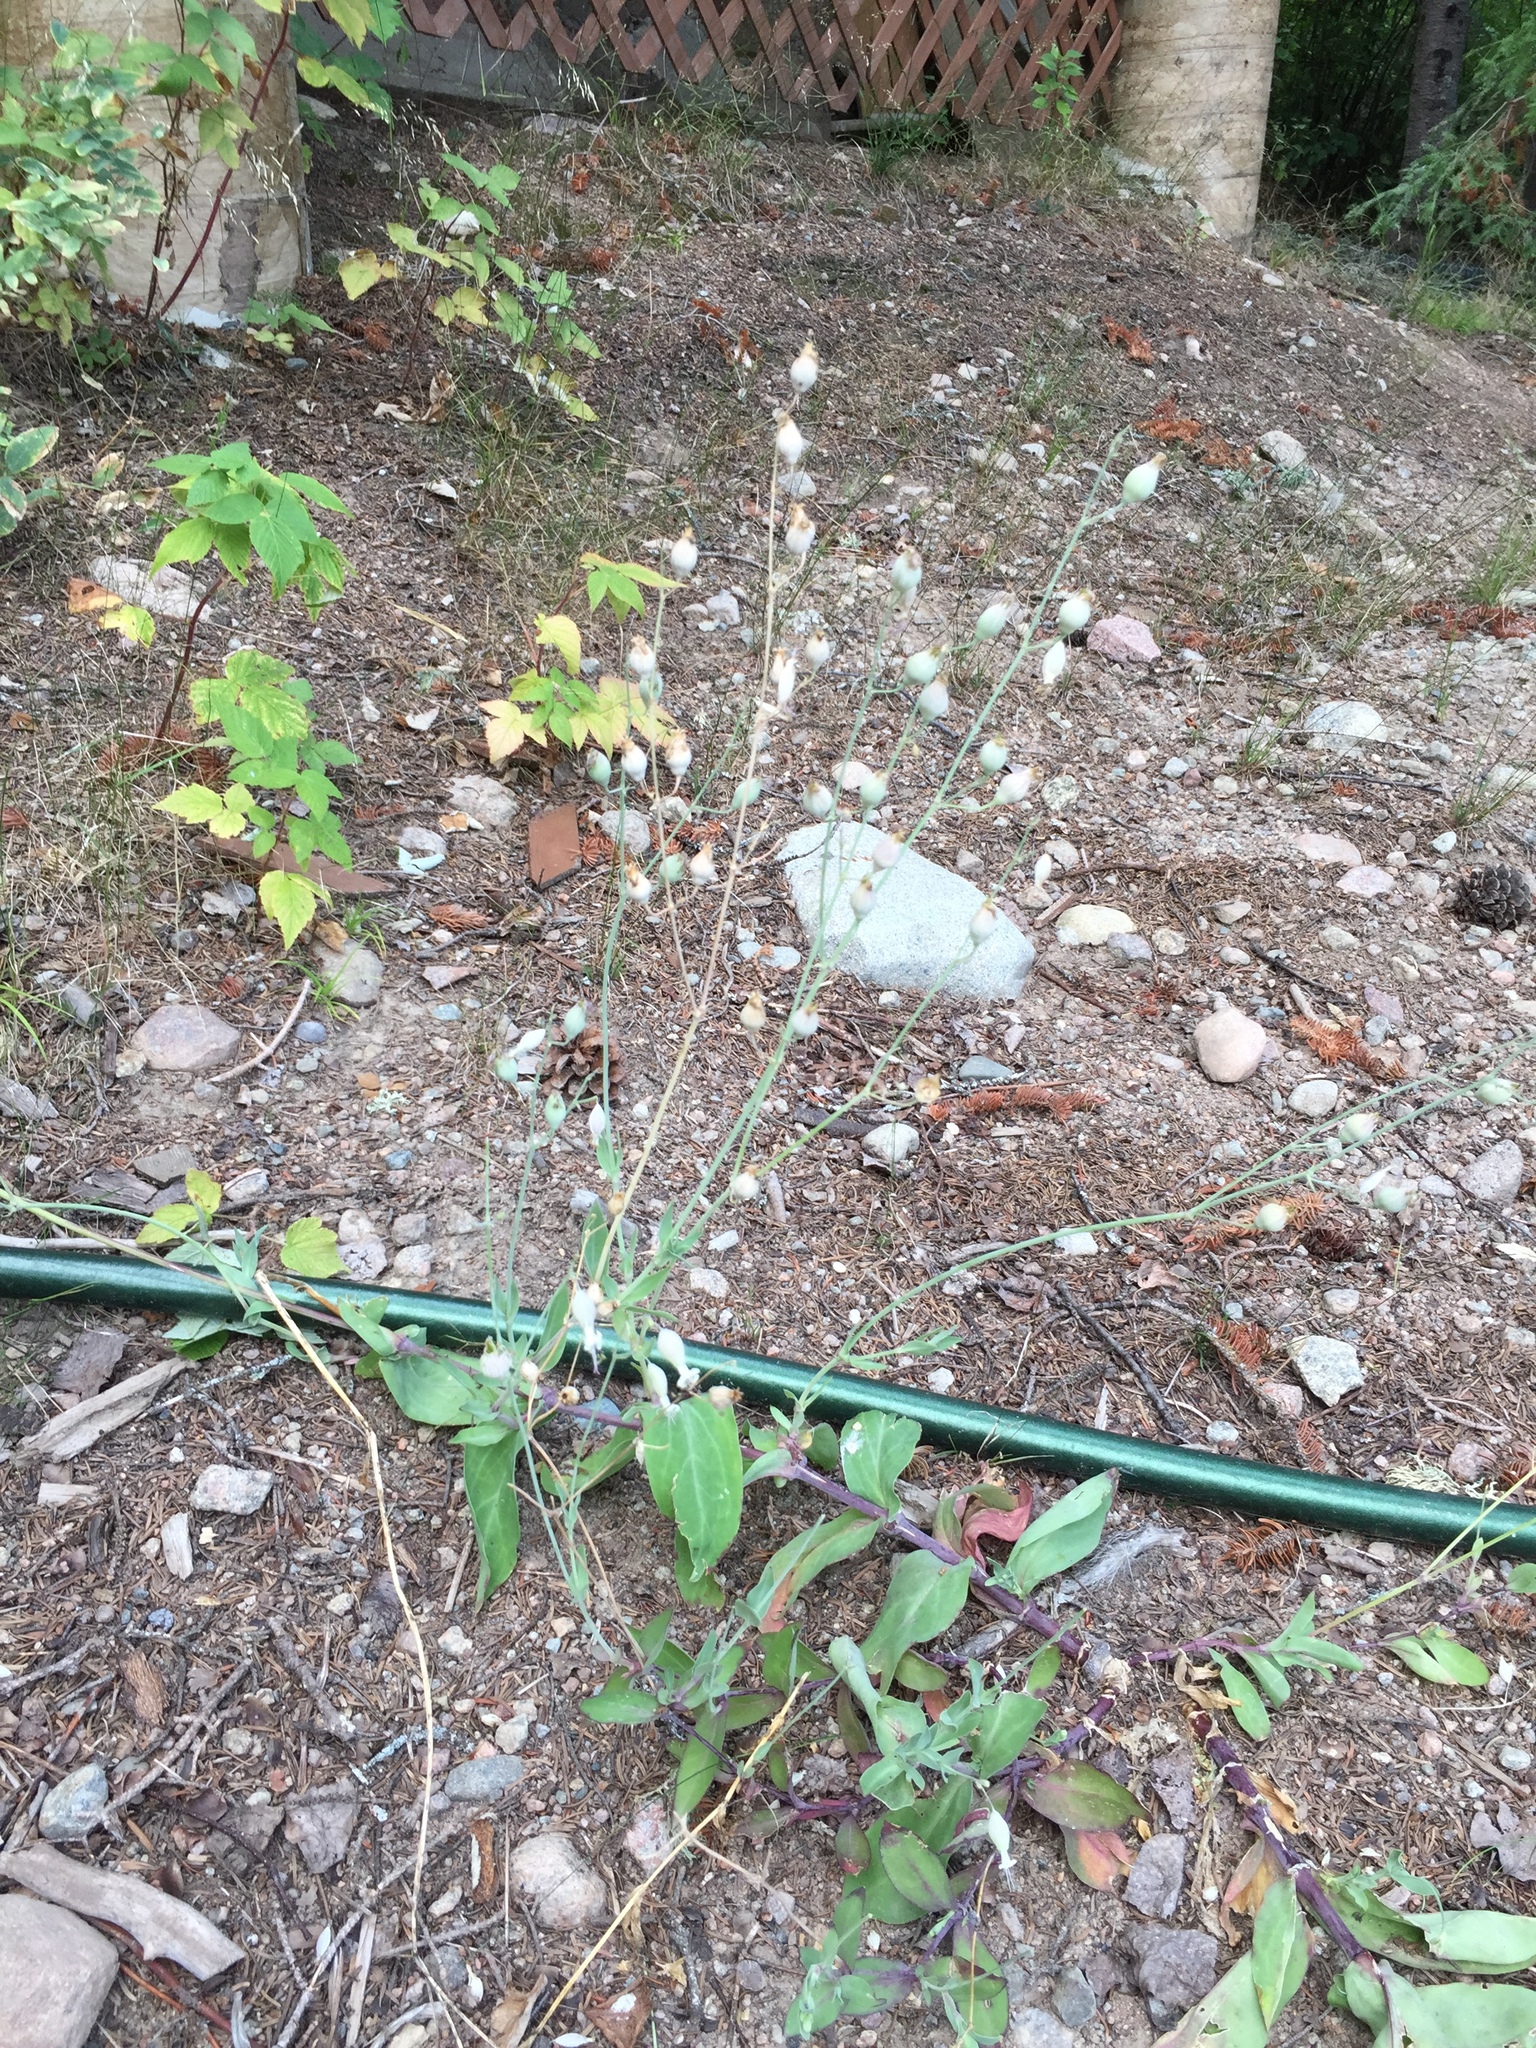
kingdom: Plantae
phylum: Tracheophyta
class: Magnoliopsida
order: Caryophyllales
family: Caryophyllaceae
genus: Silene
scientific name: Silene vulgaris
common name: Bladder campion
